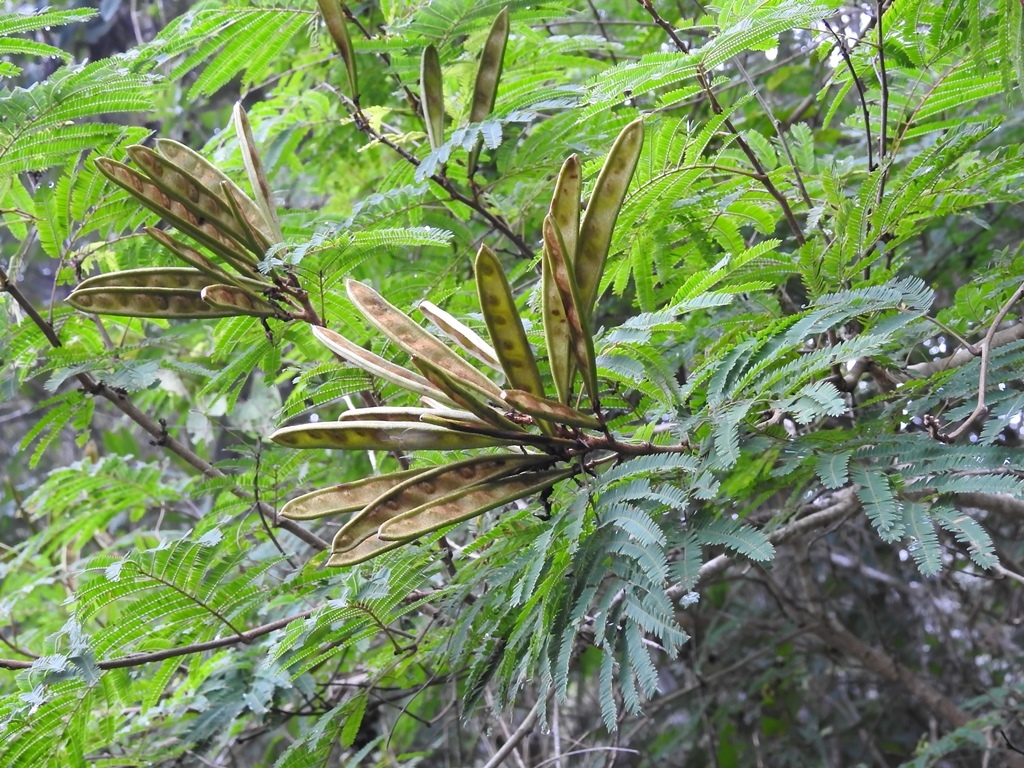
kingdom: Plantae
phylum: Tracheophyta
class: Magnoliopsida
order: Fabales
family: Fabaceae
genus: Calliandra
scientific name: Calliandra houstoniana
